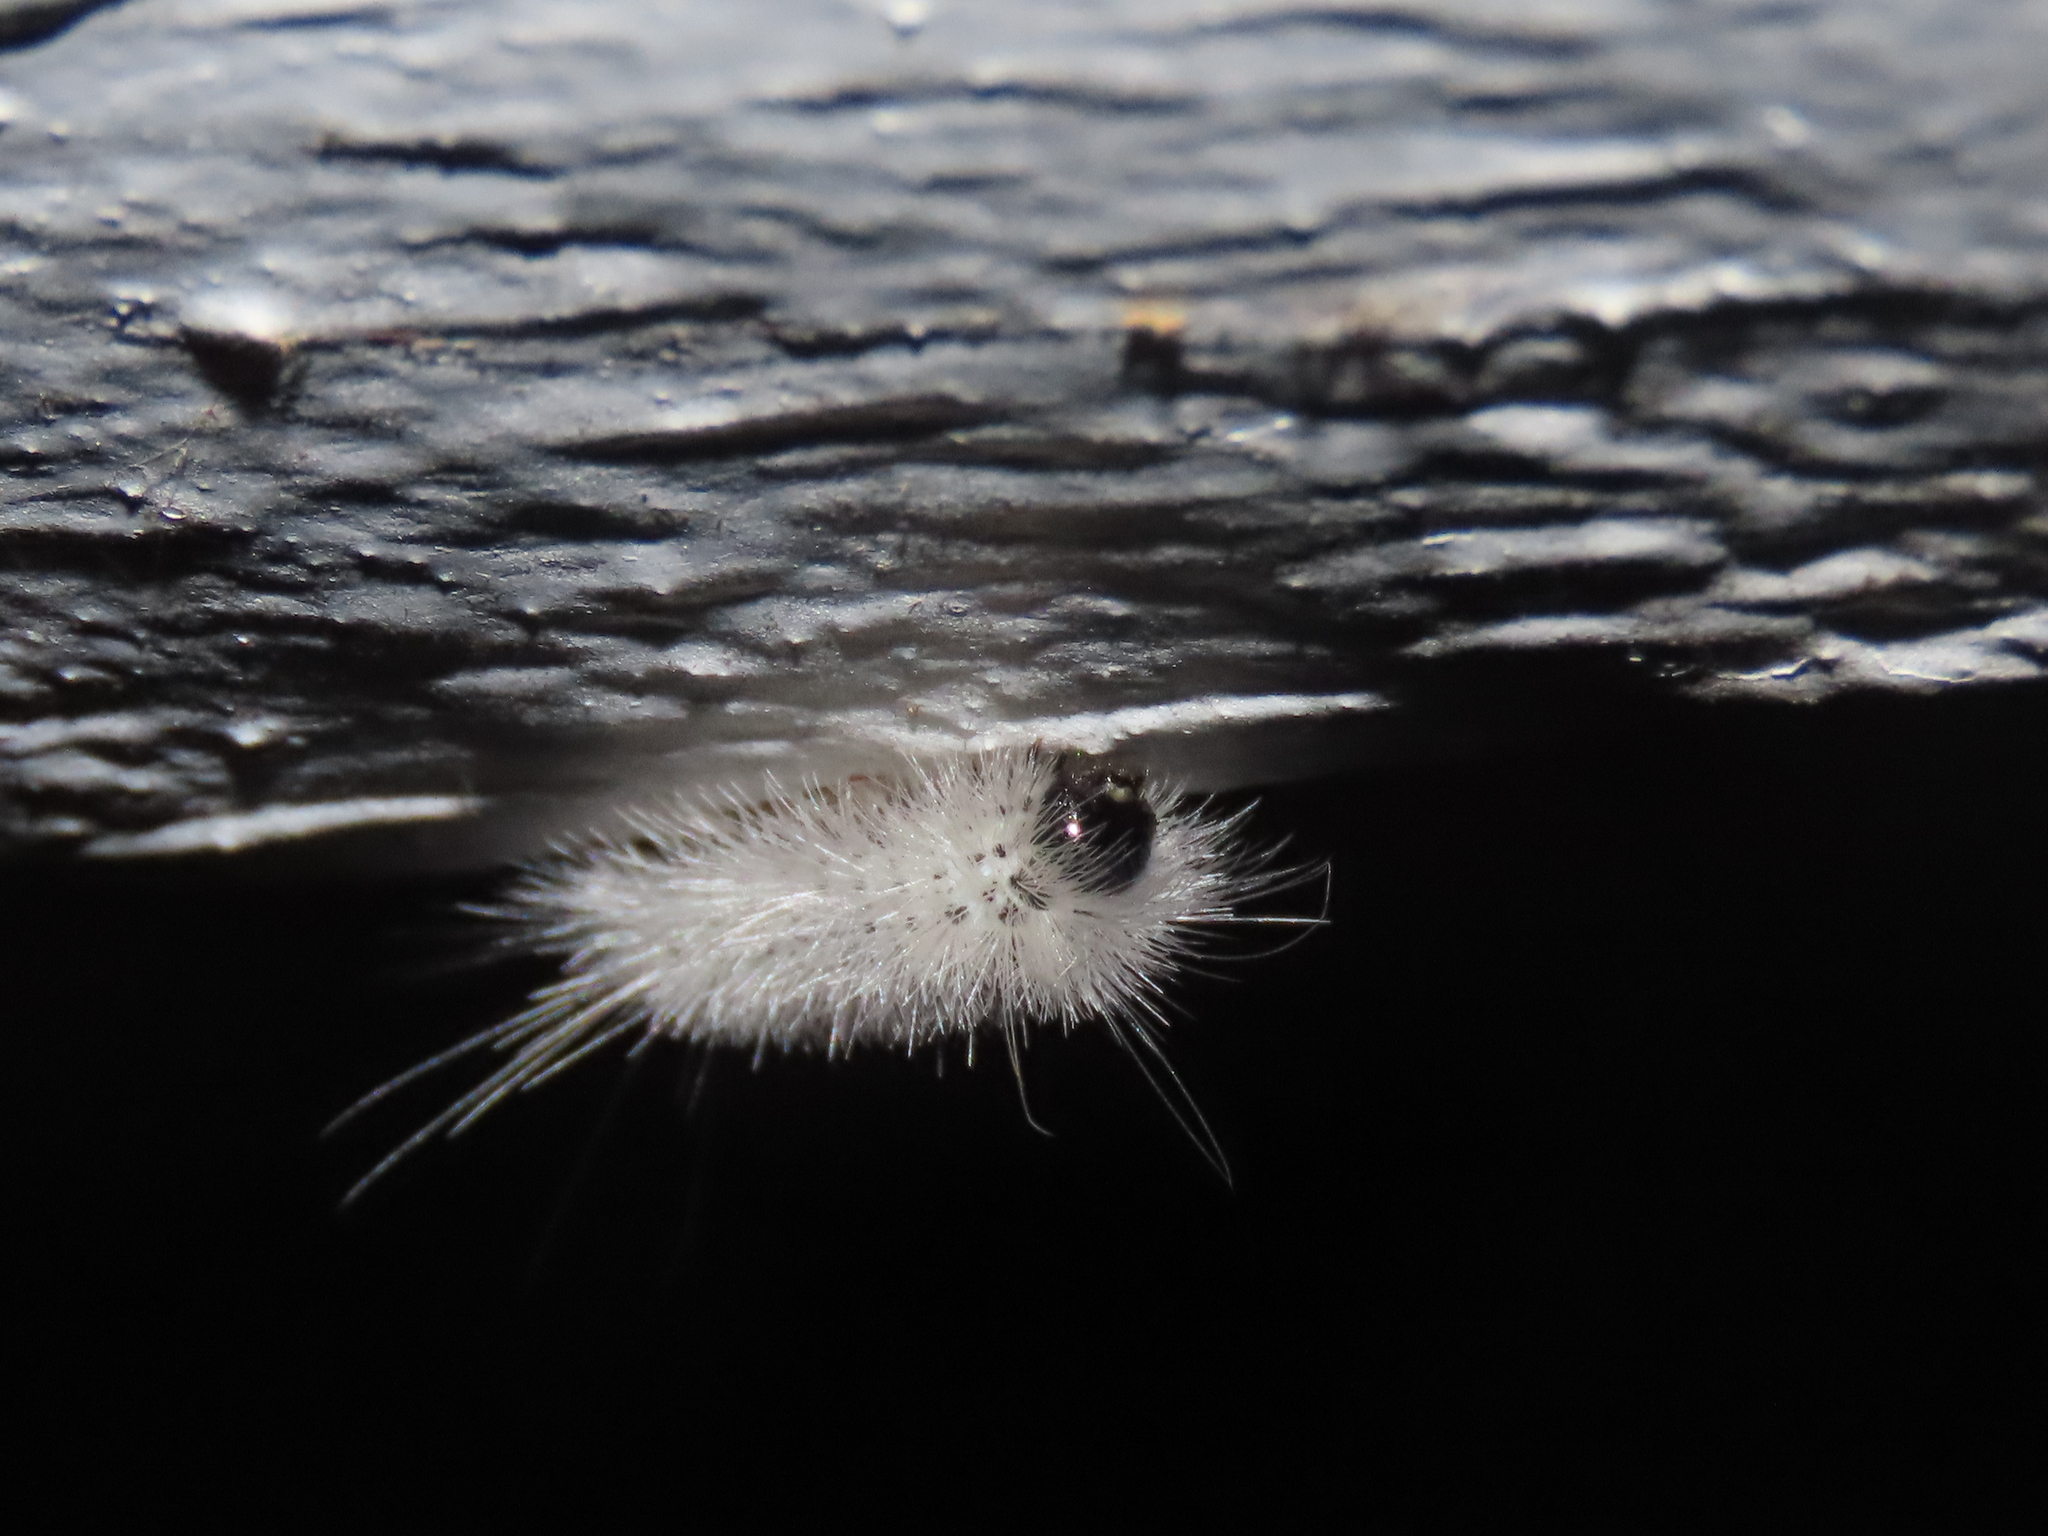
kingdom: Animalia
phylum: Arthropoda
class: Insecta
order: Lepidoptera
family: Erebidae
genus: Lophocampa
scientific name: Lophocampa caryae
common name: Hickory tussock moth
